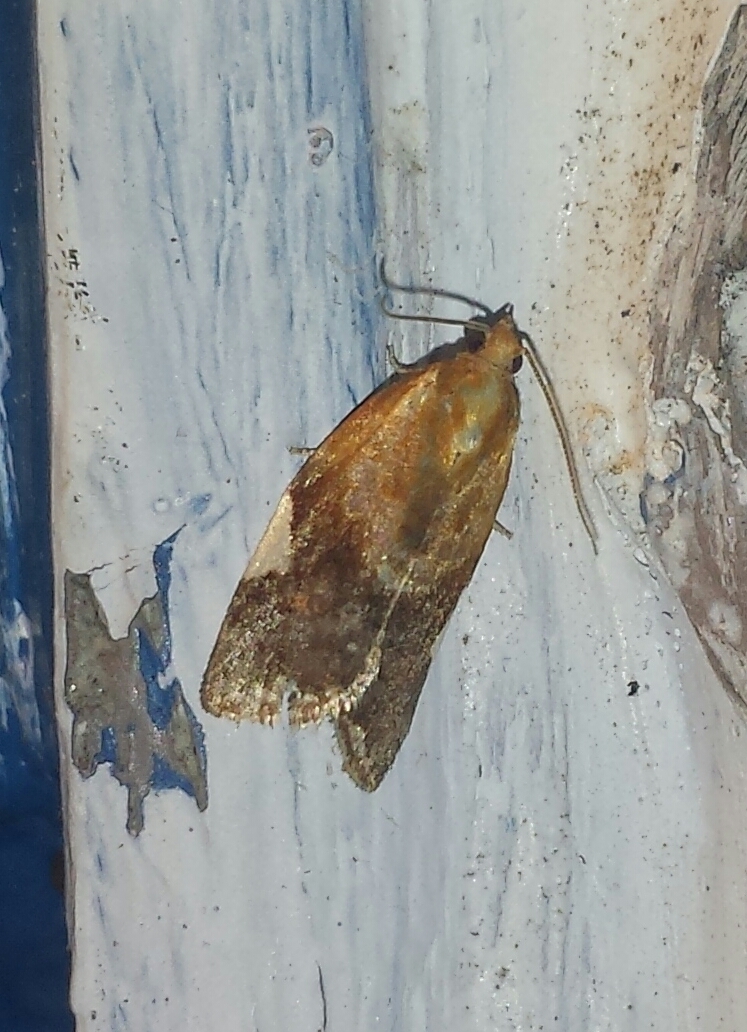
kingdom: Animalia
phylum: Arthropoda
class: Insecta
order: Lepidoptera
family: Tortricidae
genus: Clepsis
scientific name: Clepsis persicana
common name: White triangle tortrix
